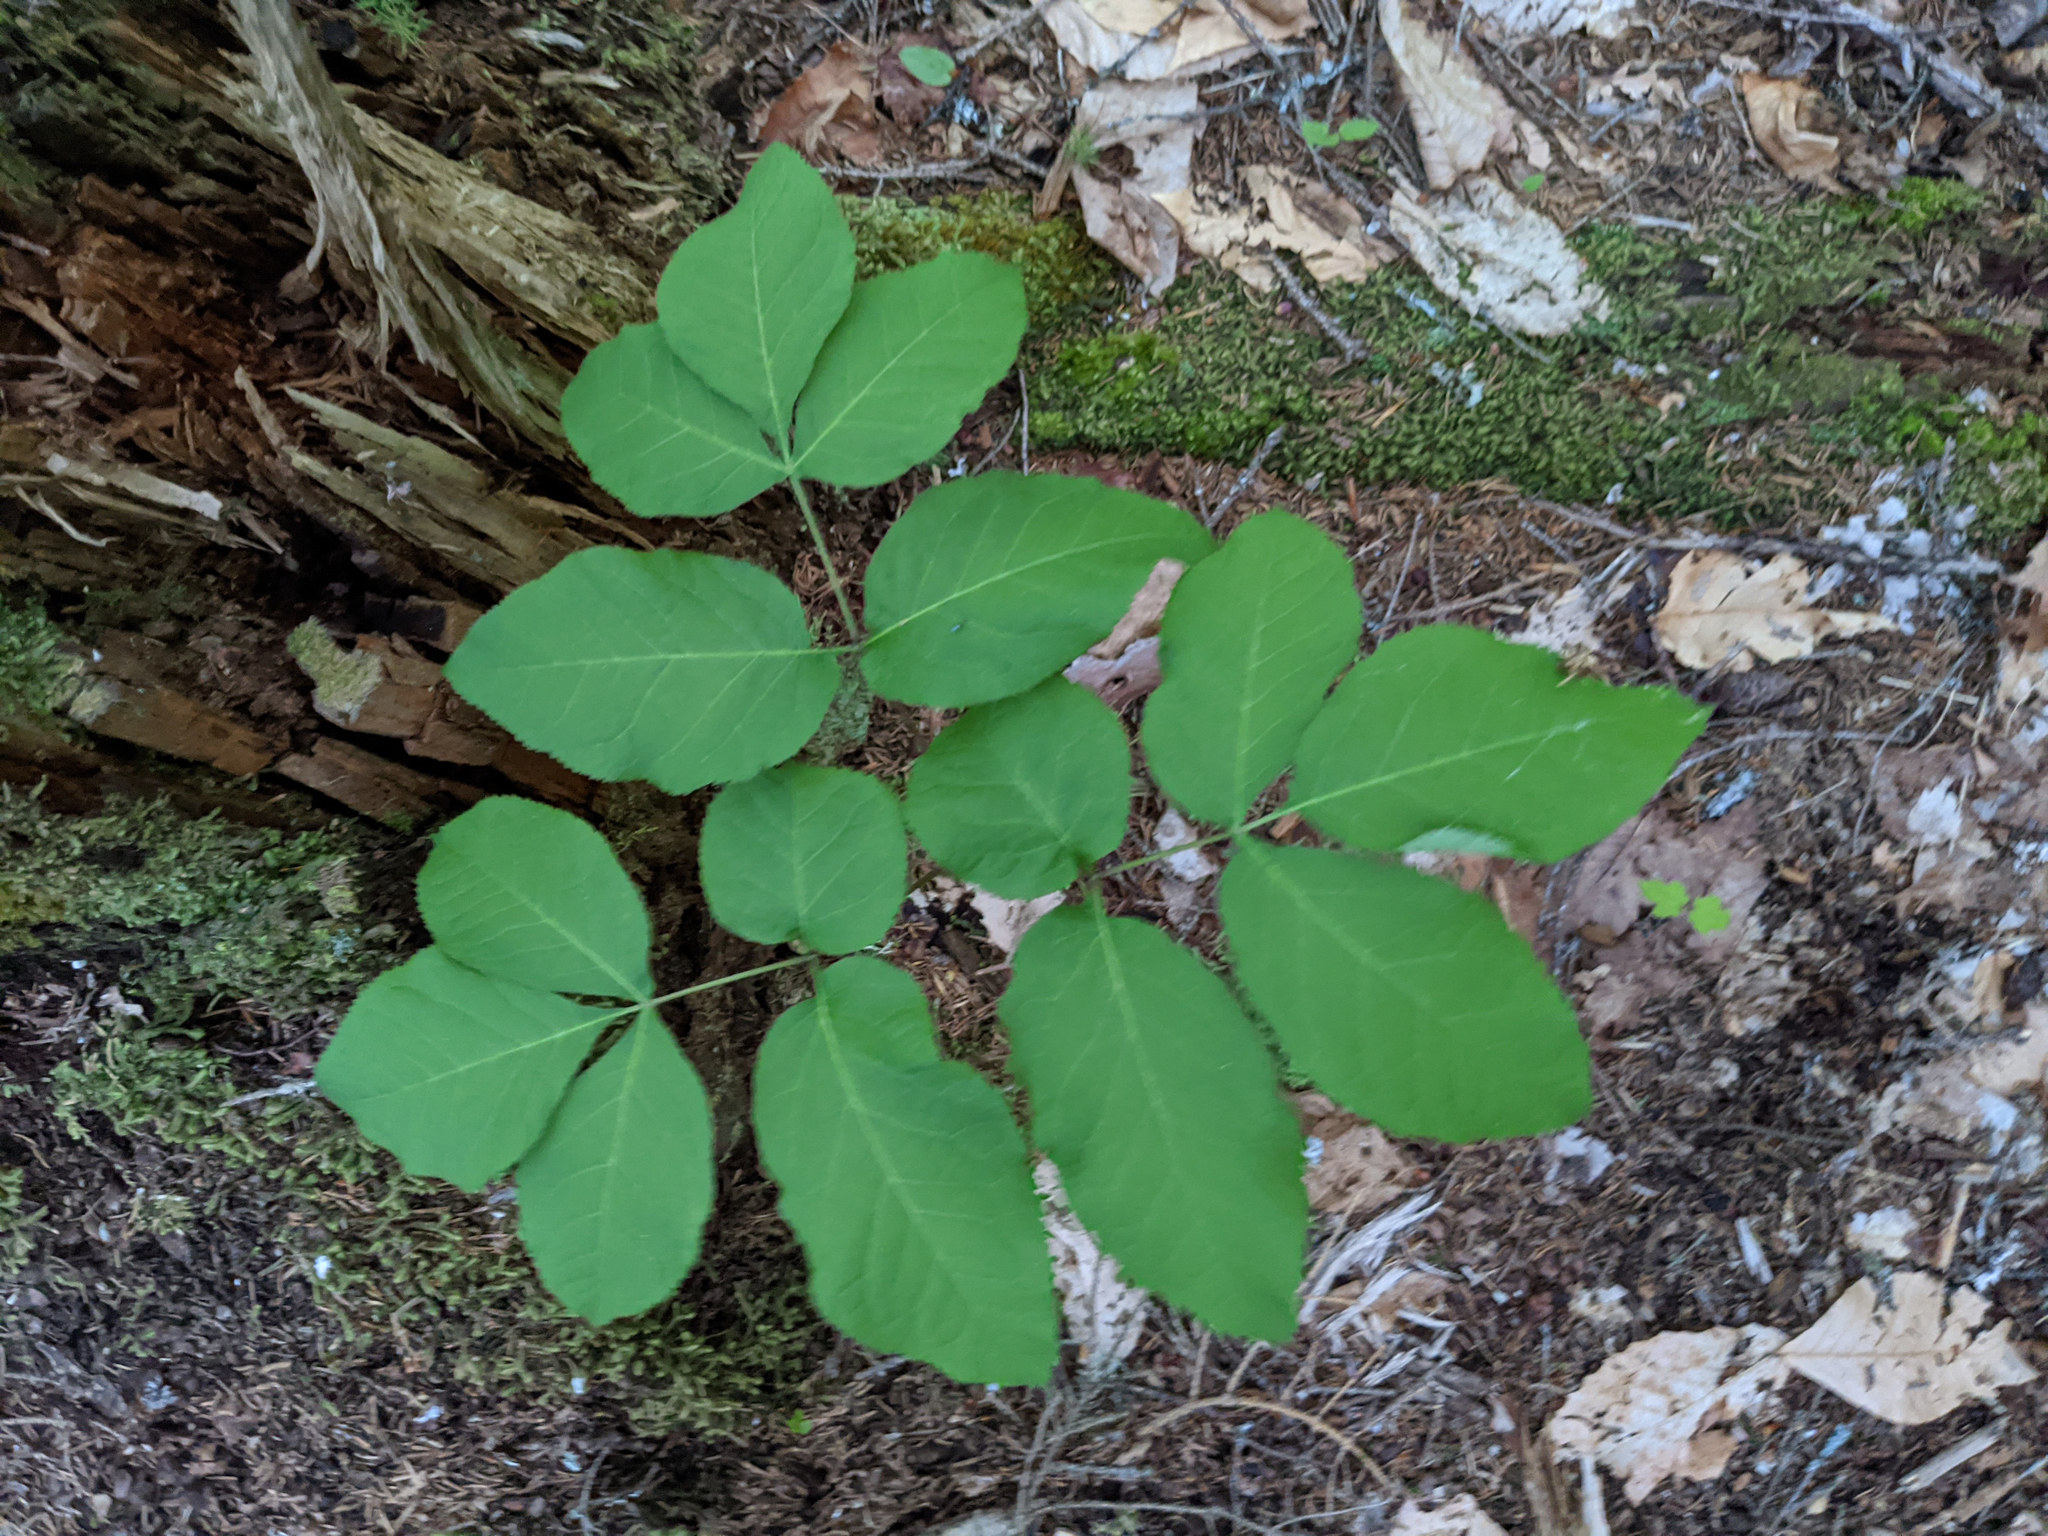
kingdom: Plantae
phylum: Tracheophyta
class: Magnoliopsida
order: Apiales
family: Araliaceae
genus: Aralia
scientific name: Aralia nudicaulis
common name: Wild sarsaparilla
